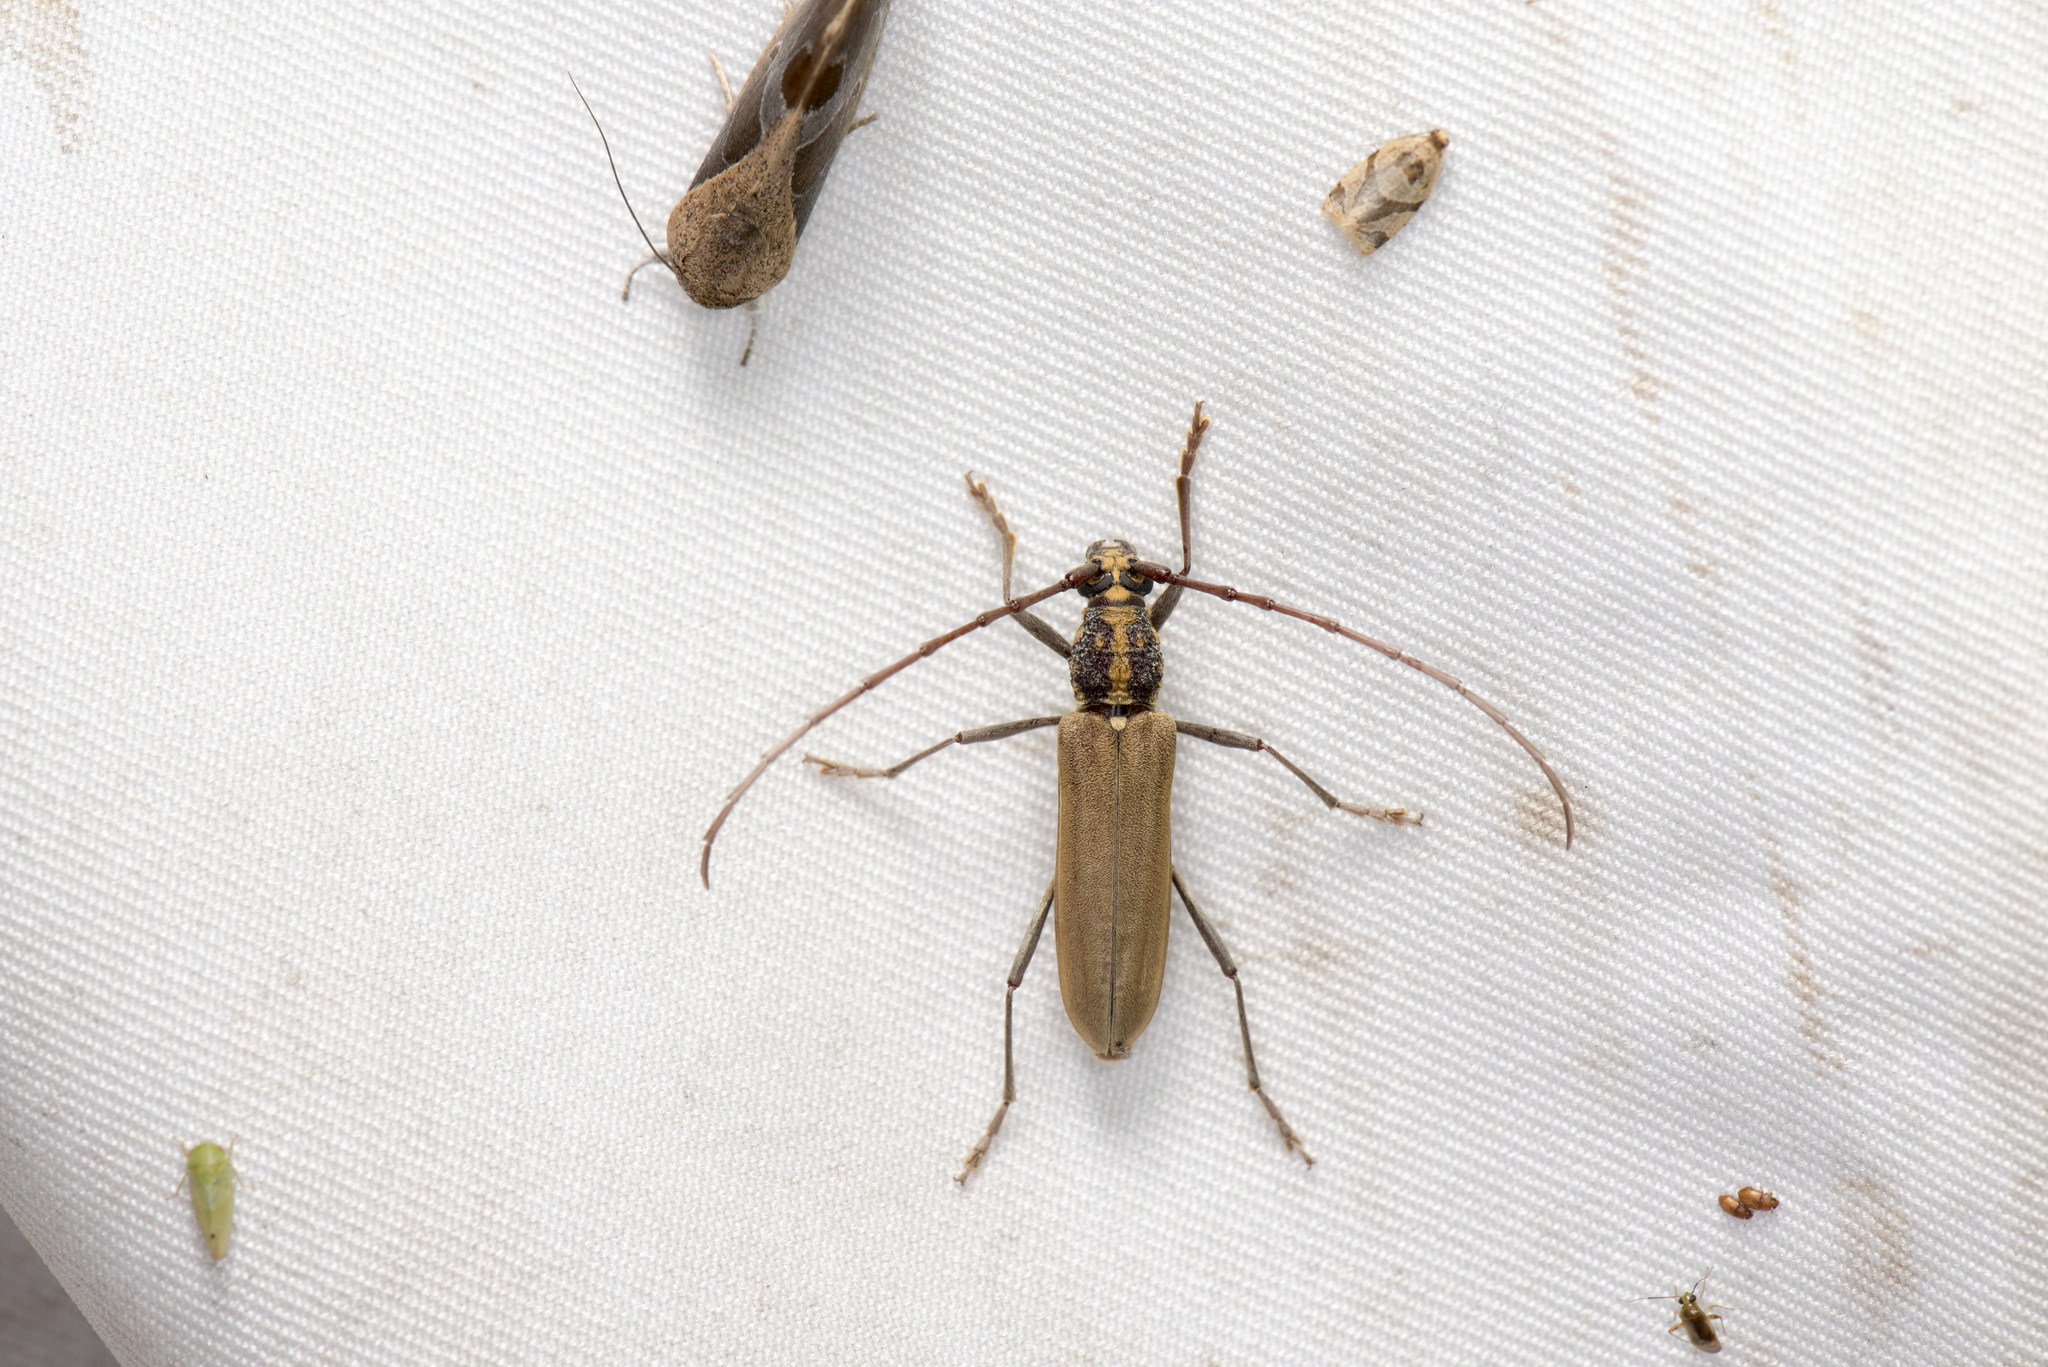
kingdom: Animalia
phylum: Arthropoda
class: Insecta
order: Coleoptera
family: Cerambycidae
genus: Gibbocerambyx
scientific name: Gibbocerambyx maculicollis
